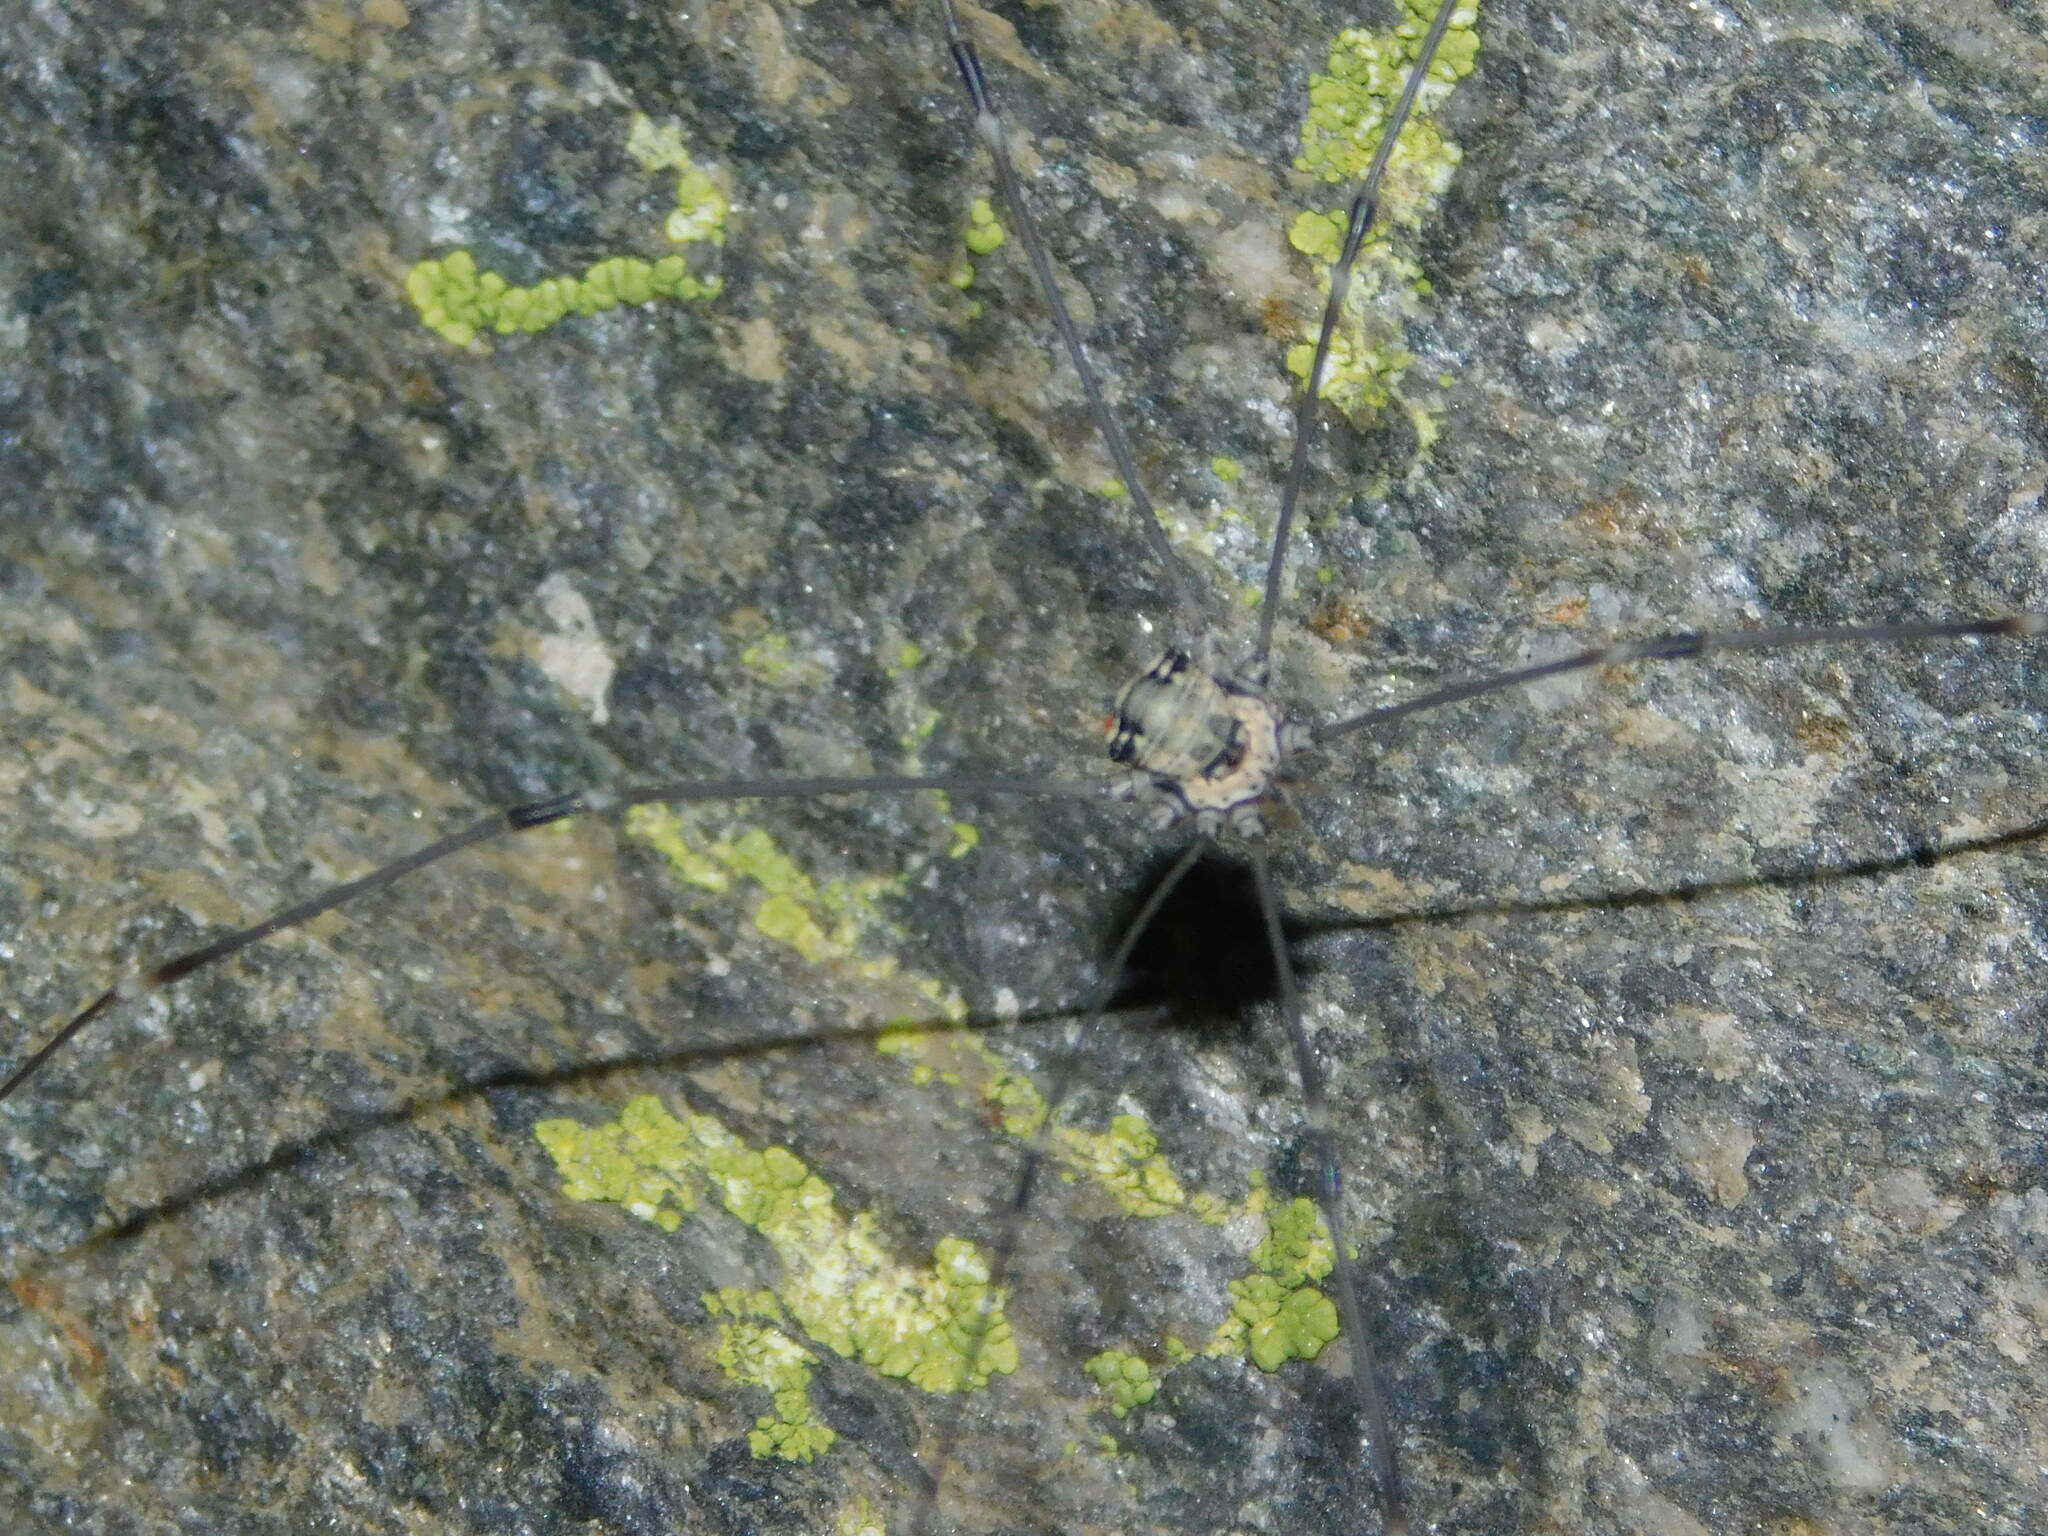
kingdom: Animalia
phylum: Arthropoda
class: Arachnida
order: Opiliones
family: Sclerosomatidae
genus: Leiobunum
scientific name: Leiobunum limbatum
